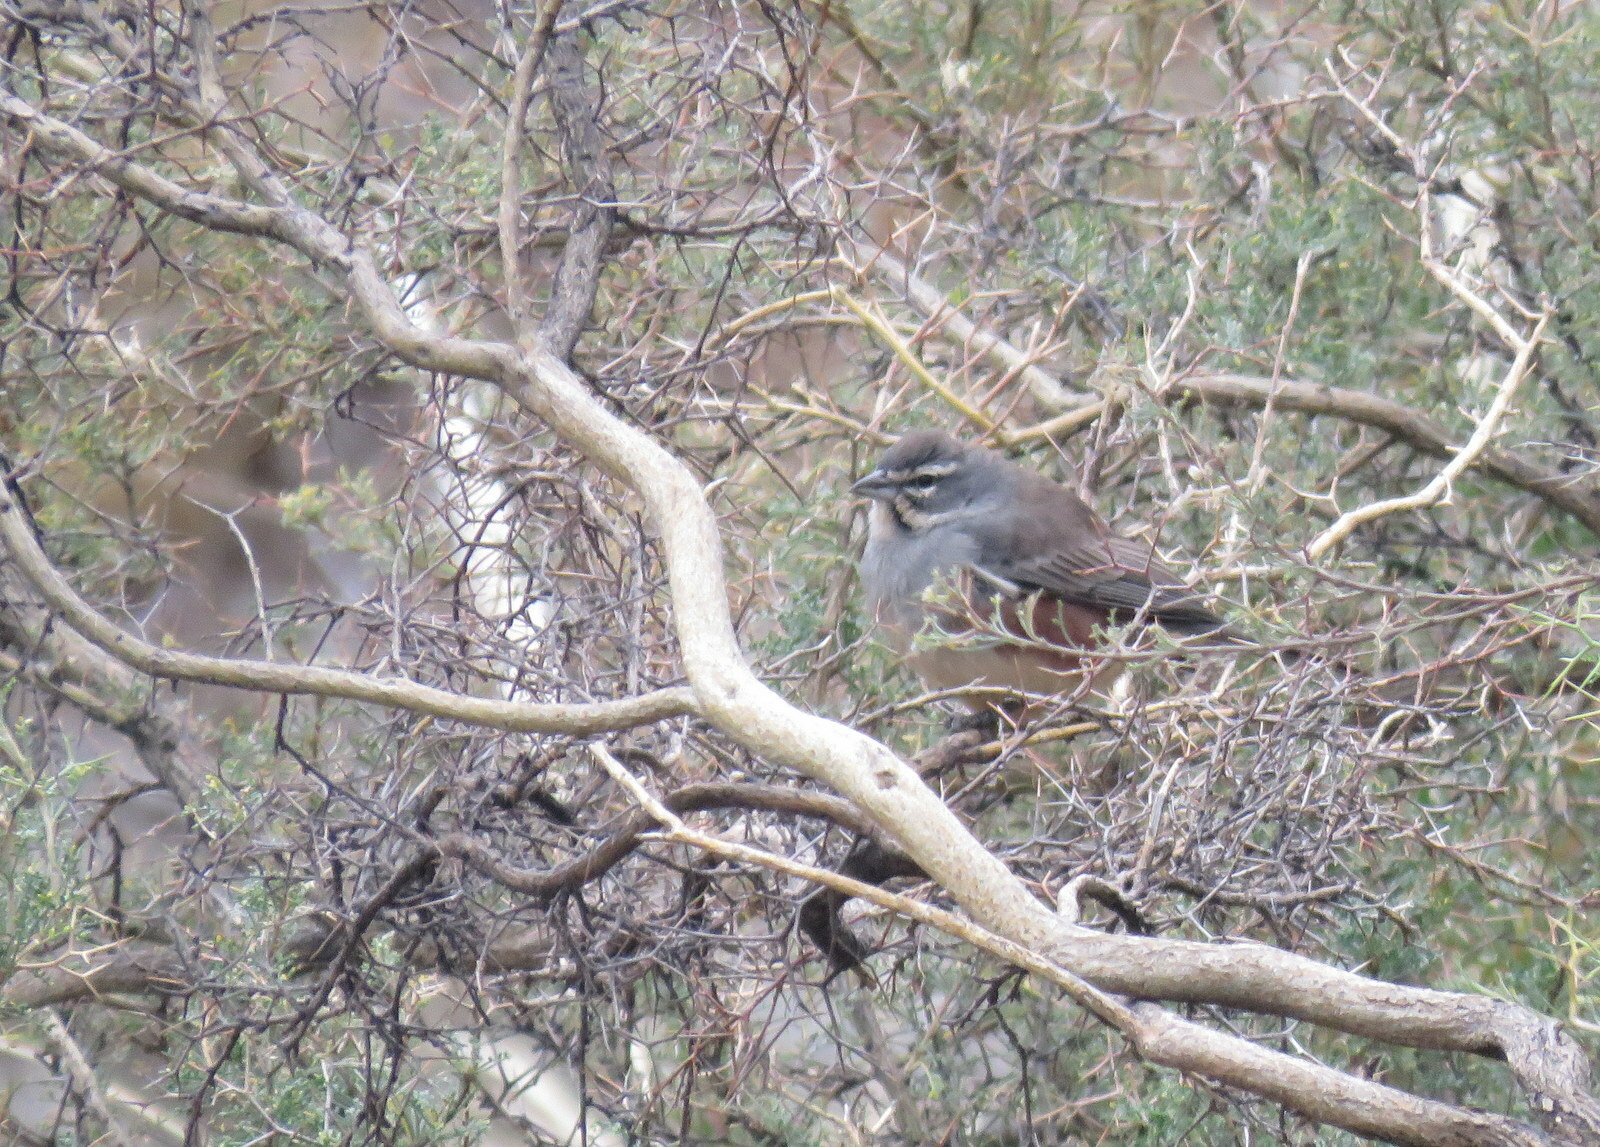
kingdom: Animalia
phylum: Chordata
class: Aves
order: Passeriformes
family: Thraupidae
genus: Poospizopsis
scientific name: Poospizopsis hypocondria
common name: Rufous-sided warbling-finch
